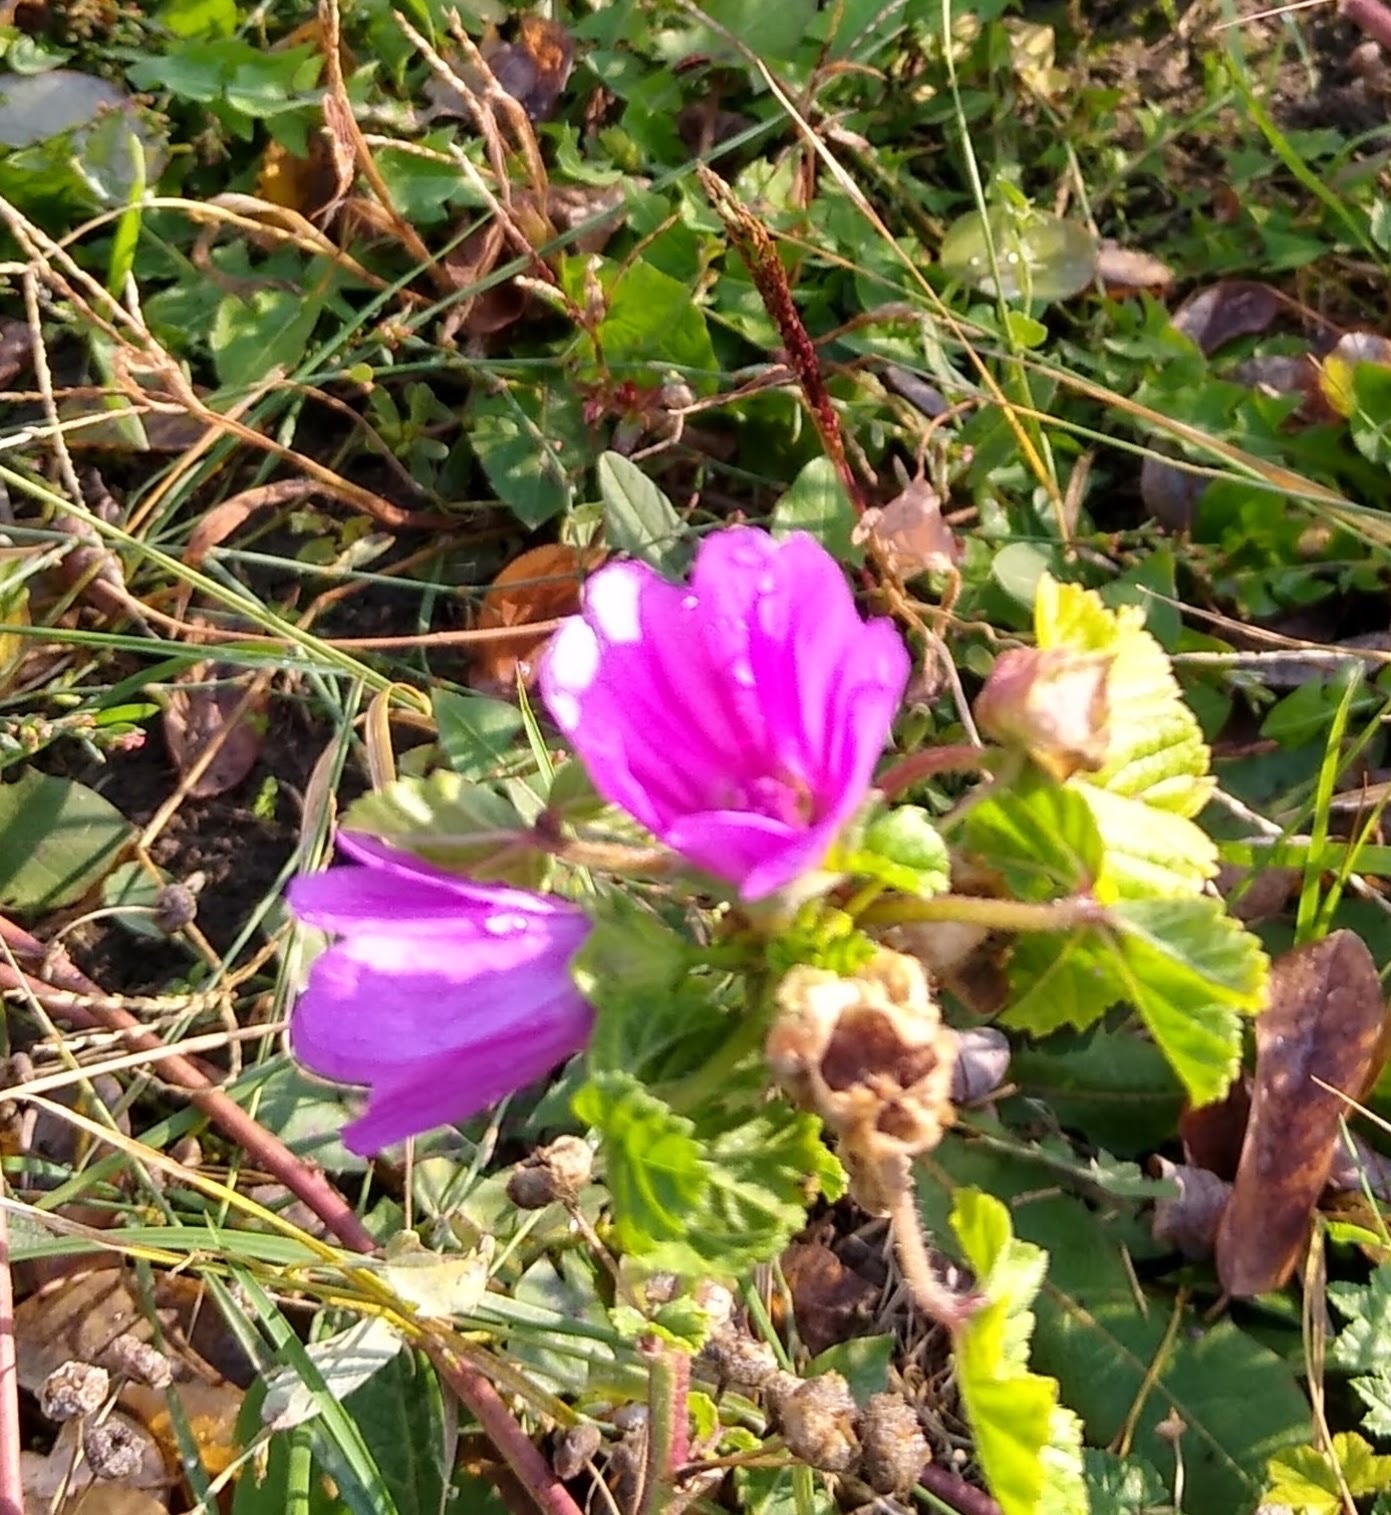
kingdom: Plantae
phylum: Tracheophyta
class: Magnoliopsida
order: Malvales
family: Malvaceae
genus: Malva
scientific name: Malva sylvestris
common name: Common mallow
